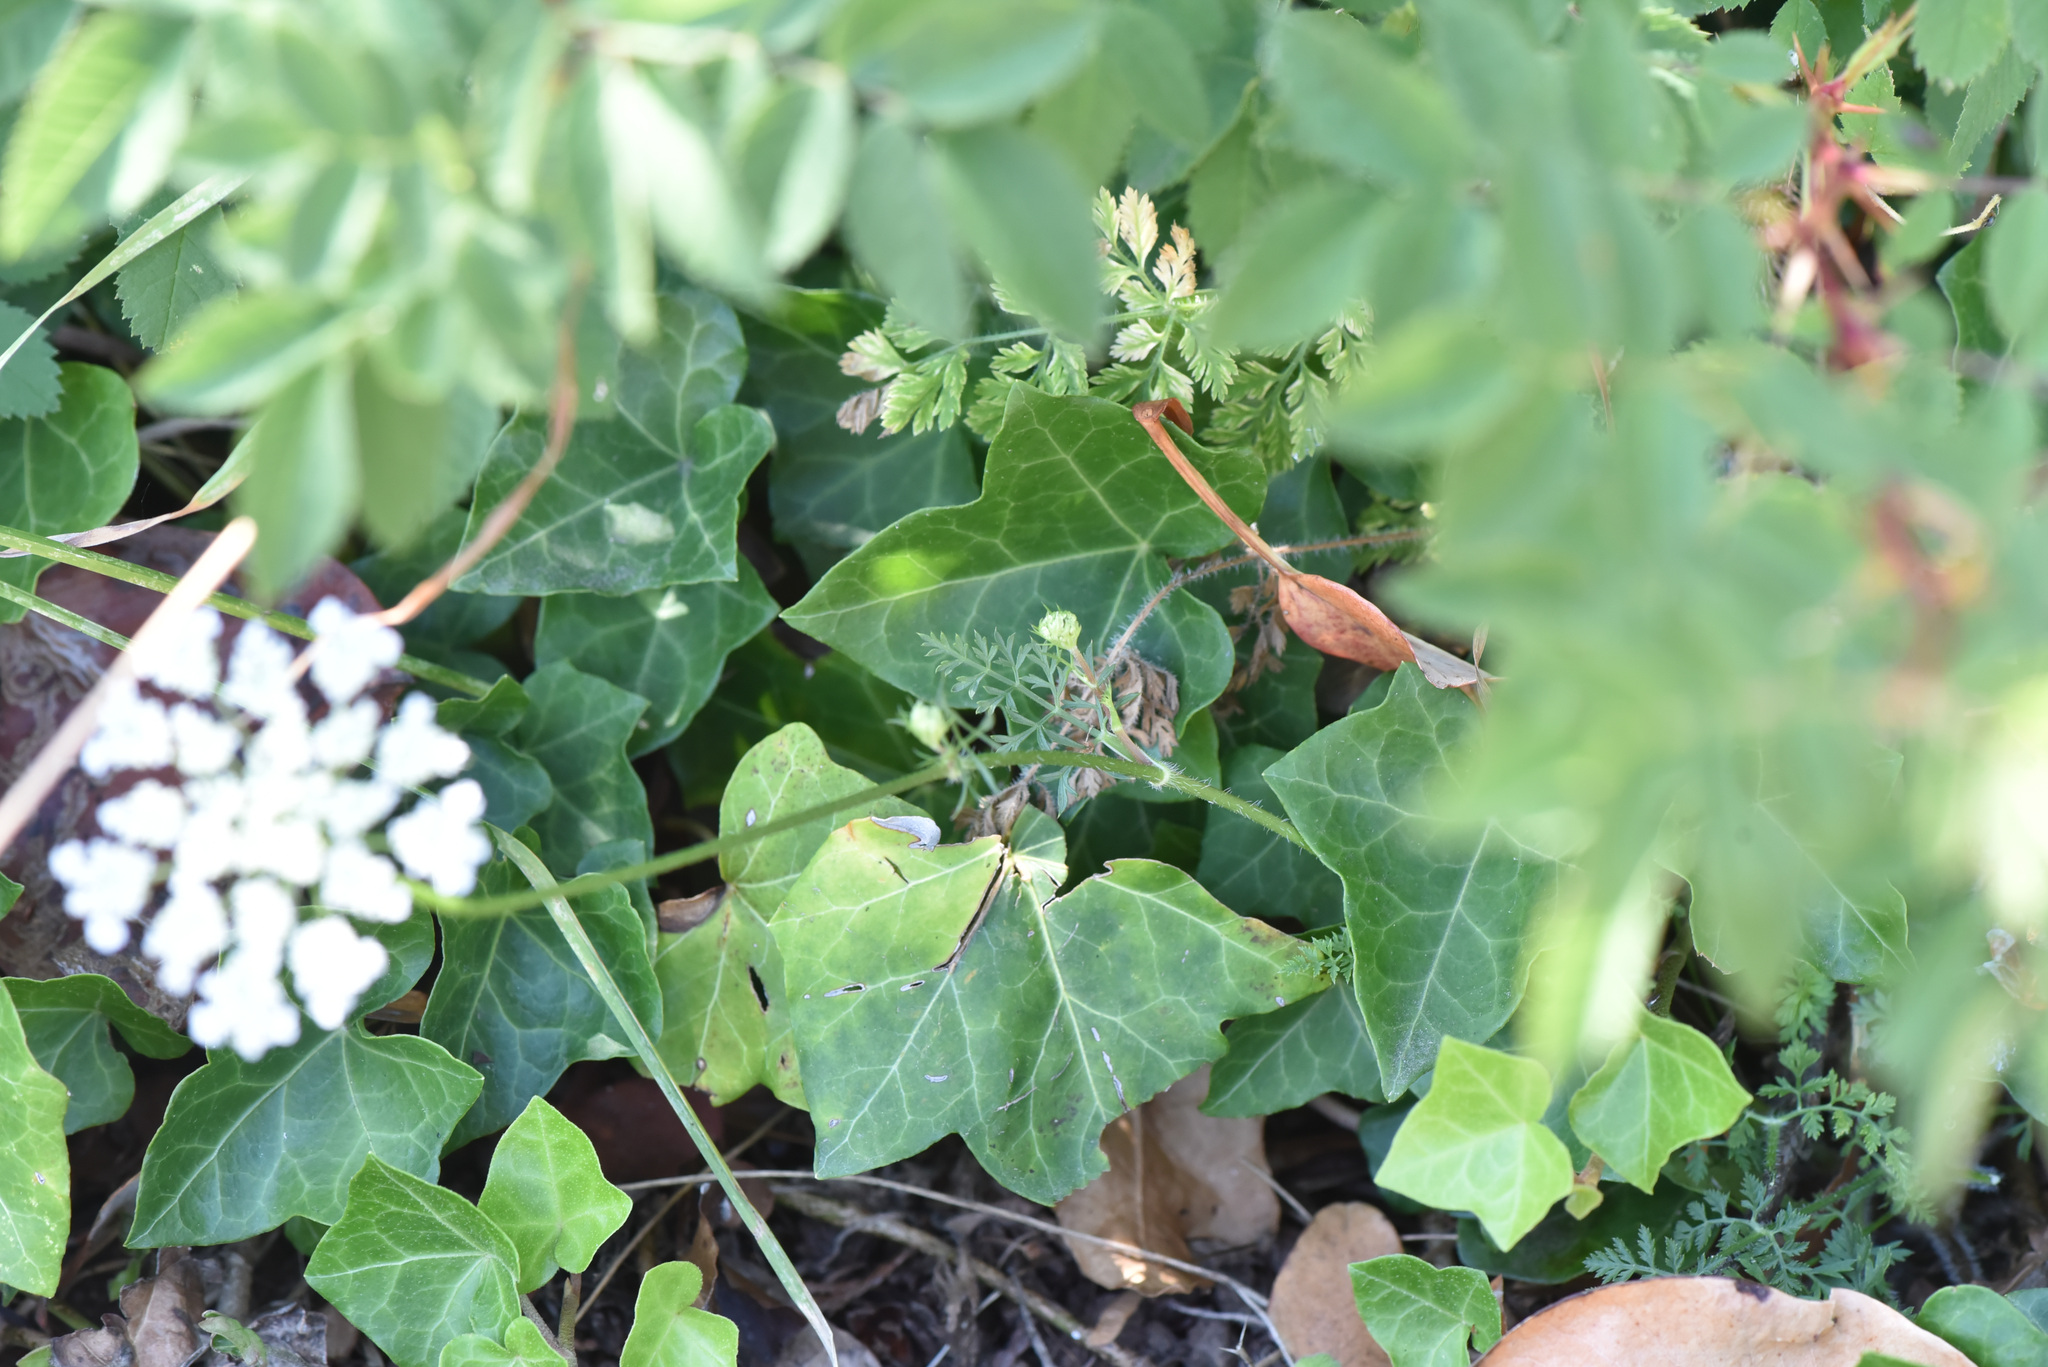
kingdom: Plantae
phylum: Tracheophyta
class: Magnoliopsida
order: Apiales
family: Apiaceae
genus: Daucus
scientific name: Daucus carota
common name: Wild carrot
